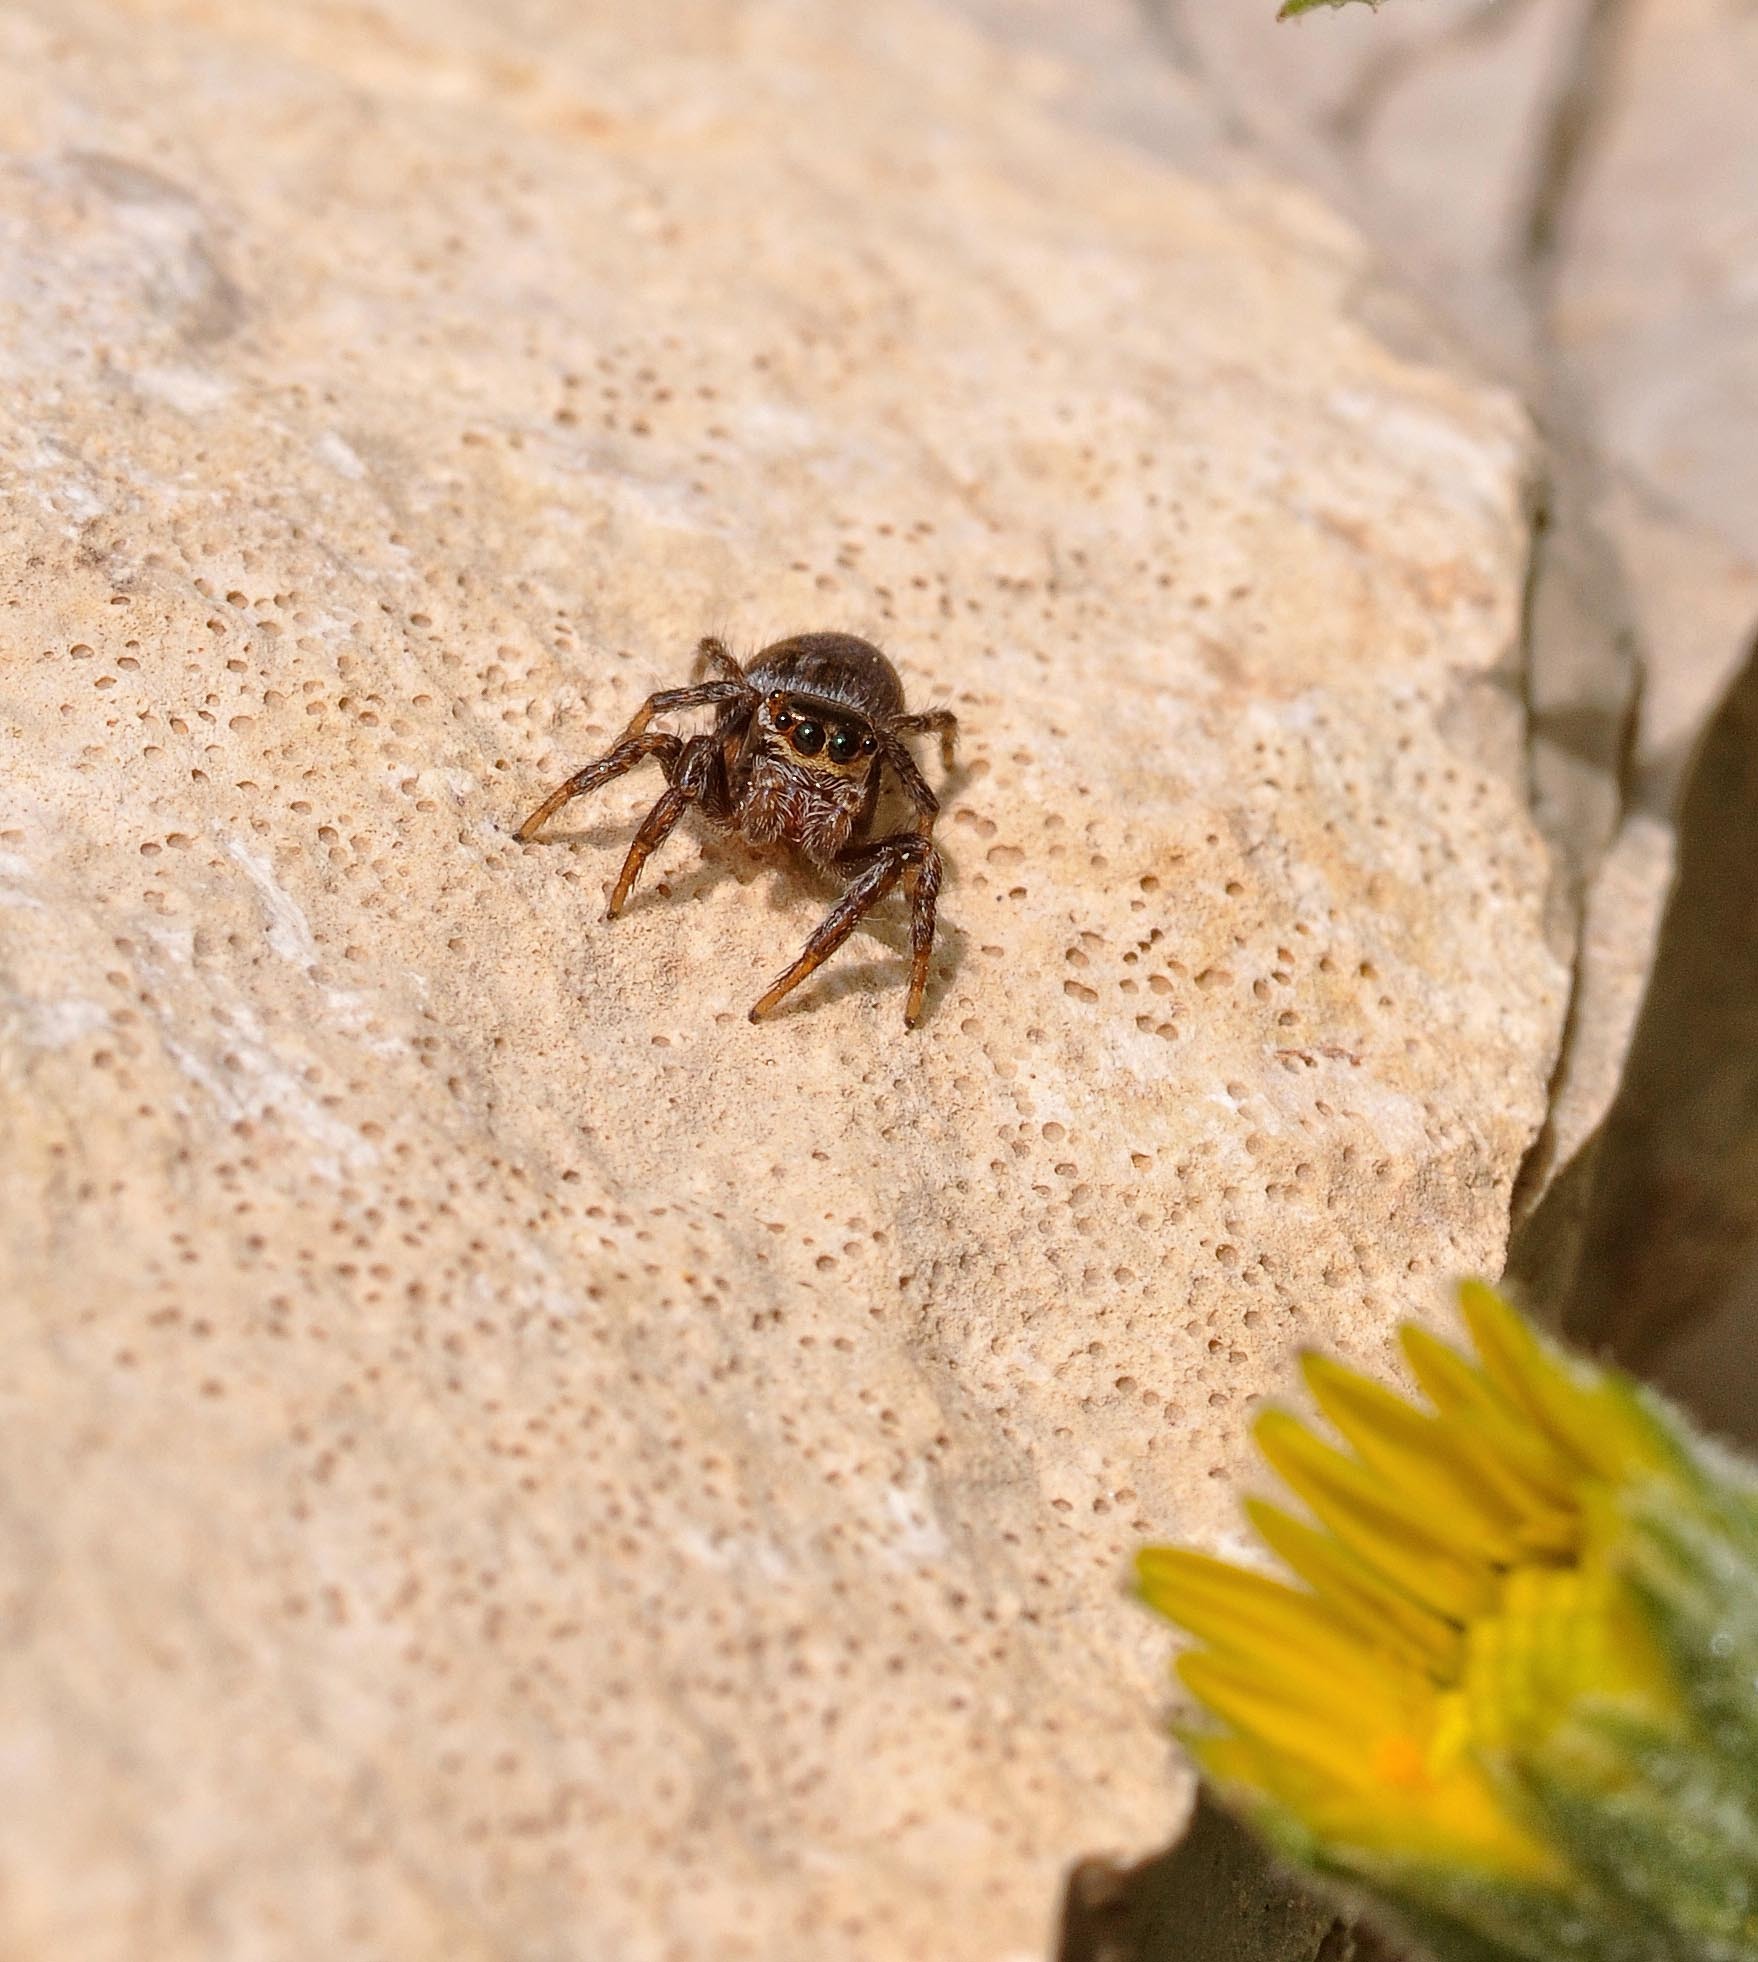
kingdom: Animalia
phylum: Arthropoda
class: Arachnida
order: Araneae
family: Salticidae
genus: Evarcha
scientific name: Evarcha jucunda
